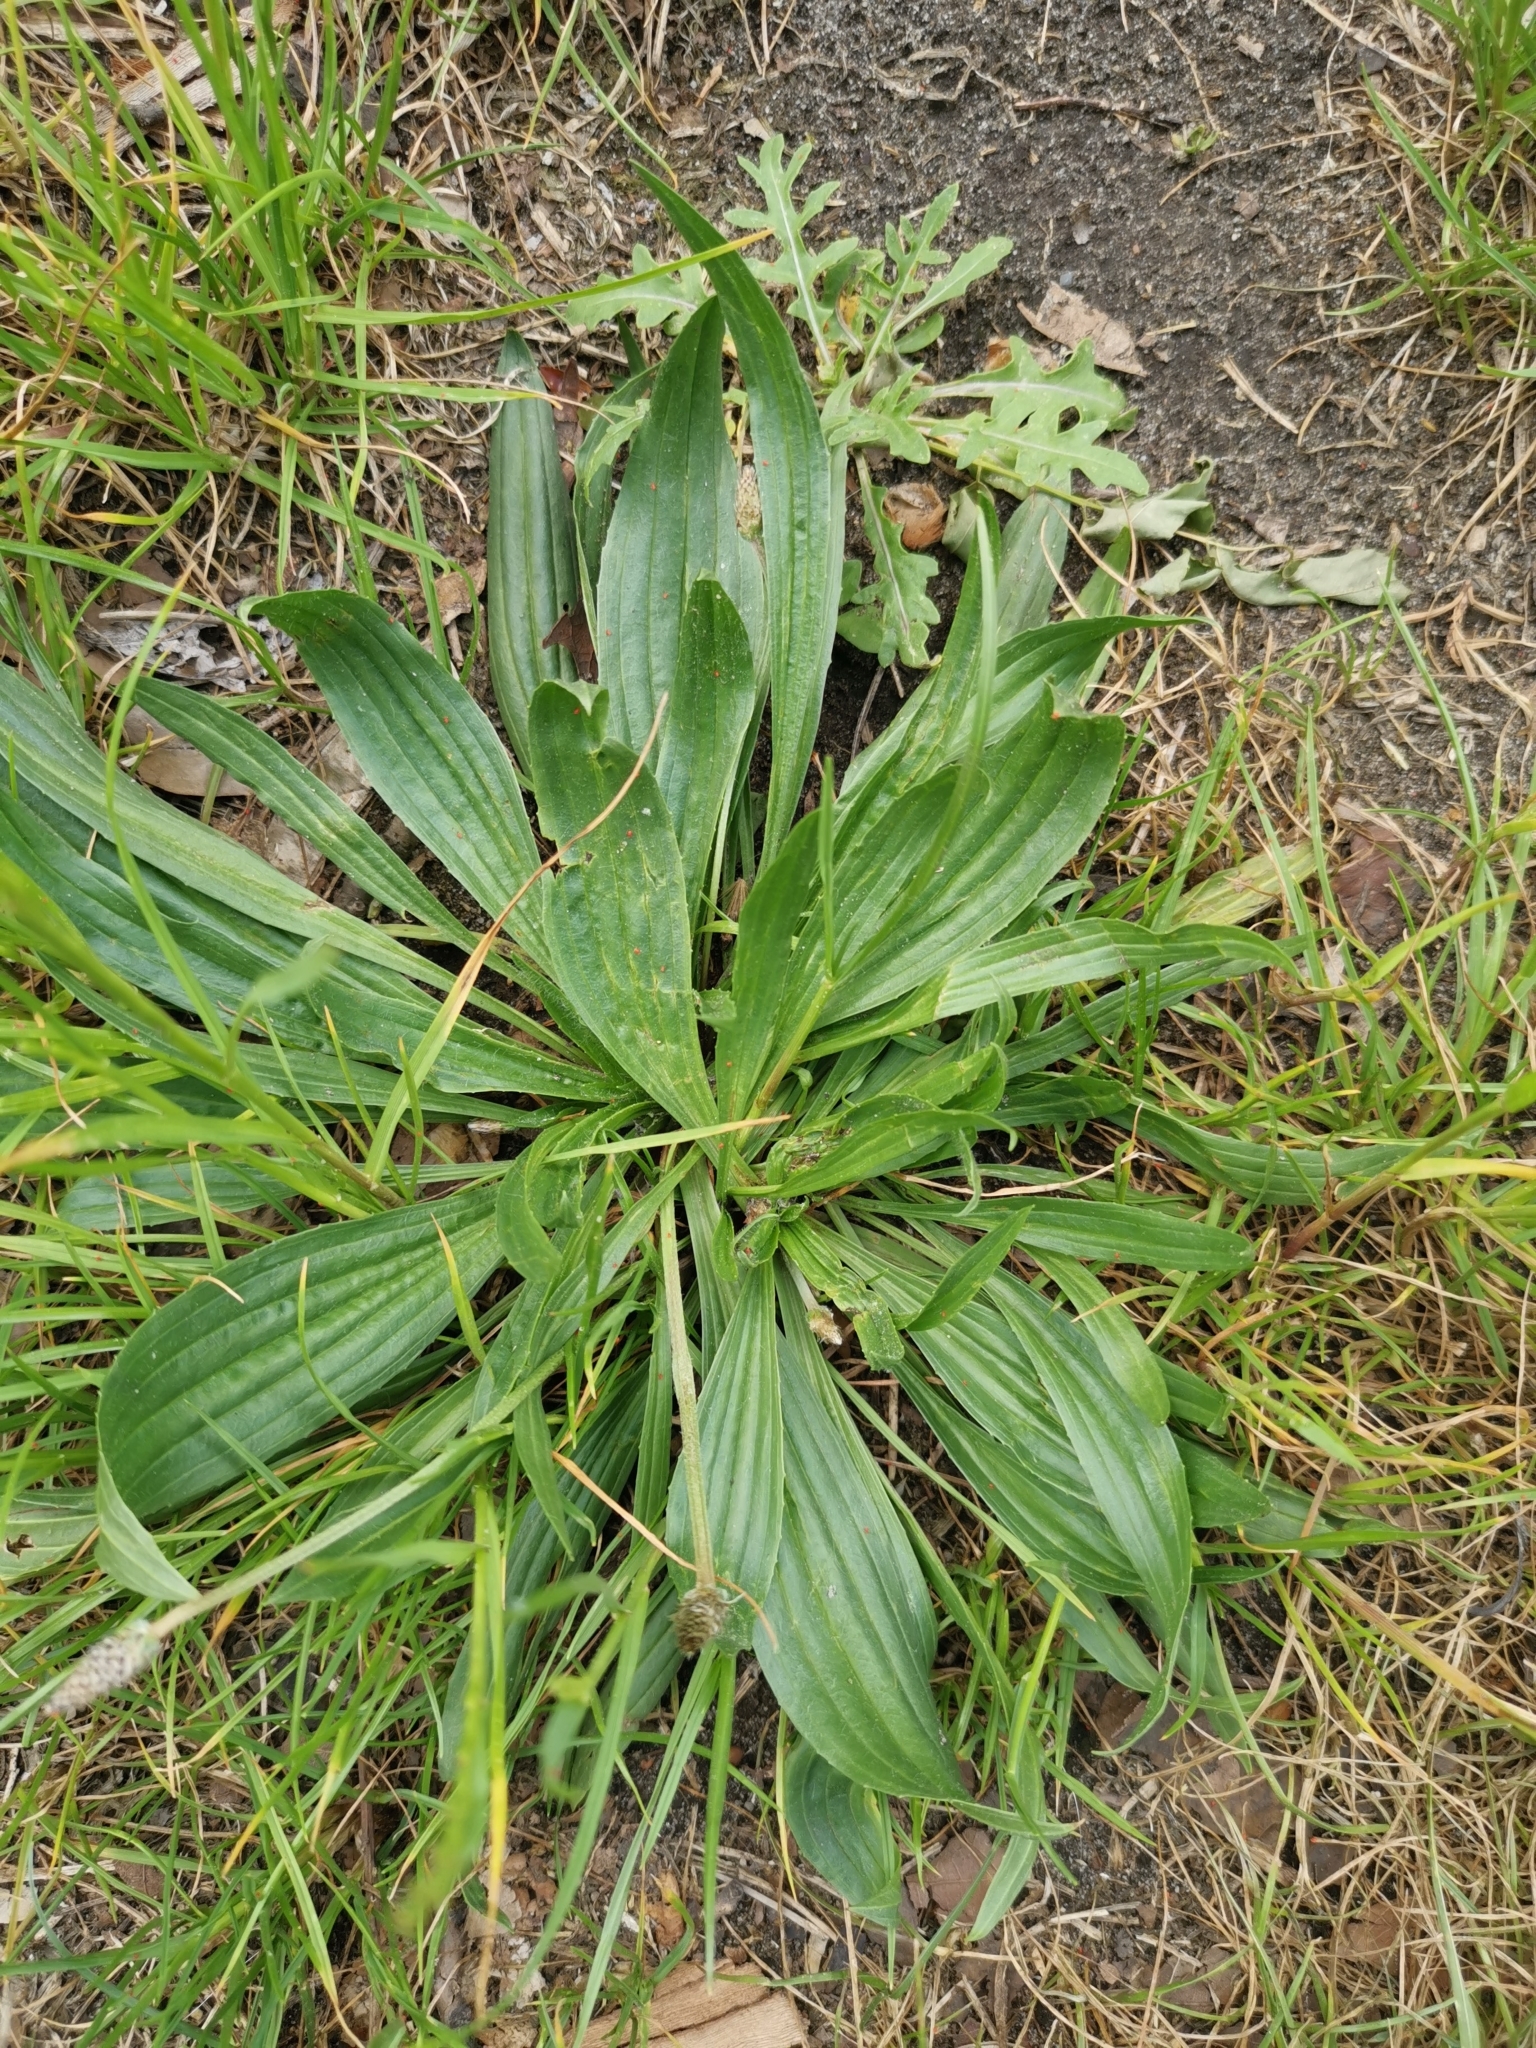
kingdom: Plantae
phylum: Tracheophyta
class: Magnoliopsida
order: Lamiales
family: Plantaginaceae
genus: Plantago
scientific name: Plantago lanceolata
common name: Ribwort plantain
